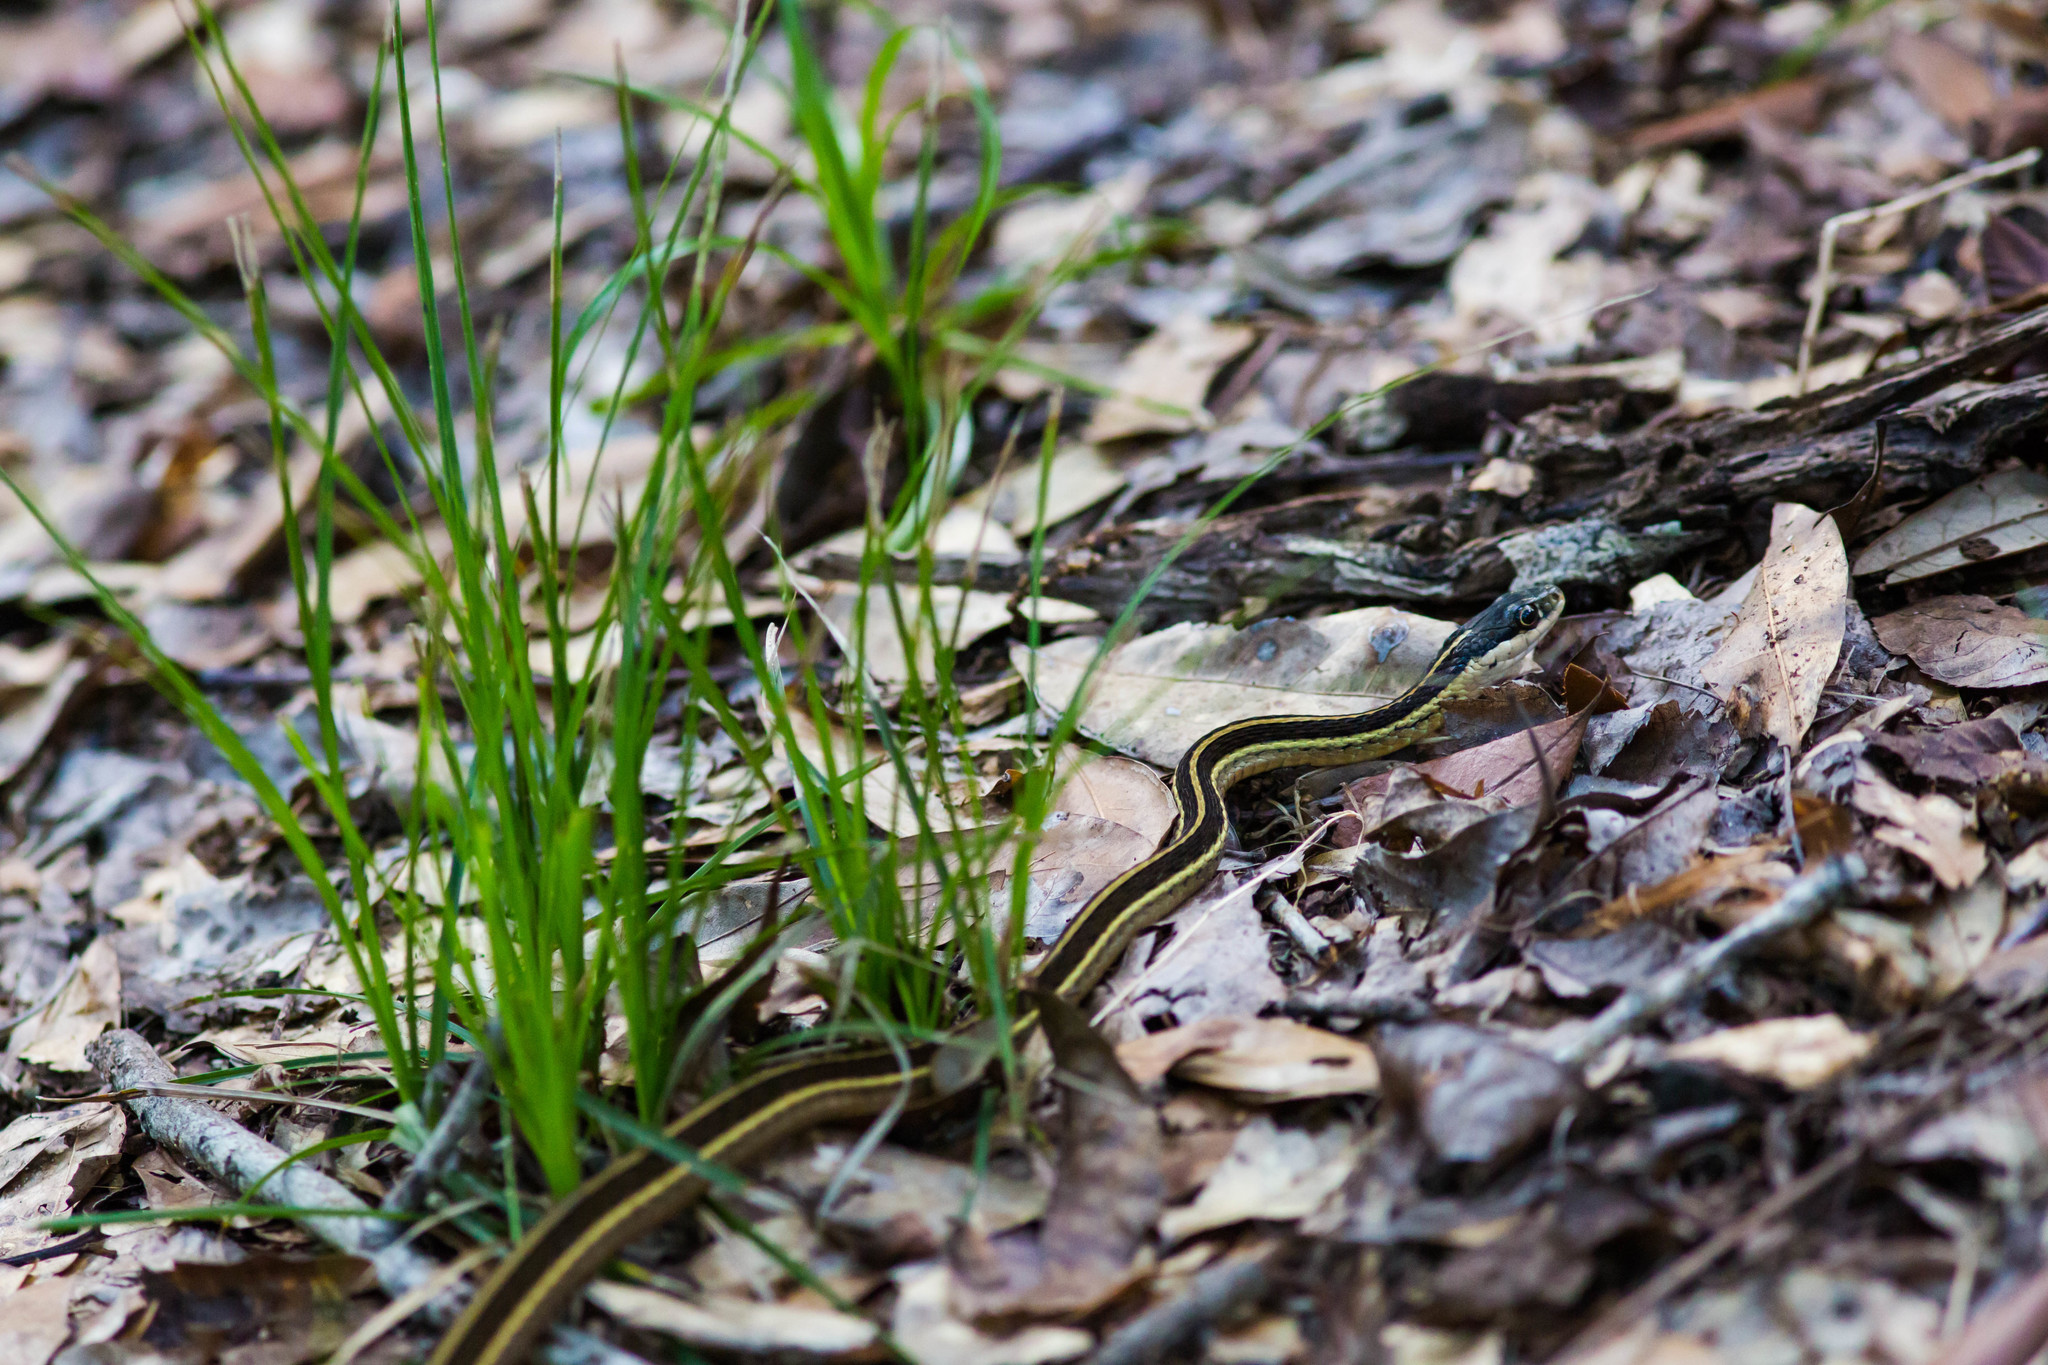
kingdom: Animalia
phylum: Chordata
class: Squamata
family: Colubridae
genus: Thamnophis
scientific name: Thamnophis saurita
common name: Eastern ribbonsnake
